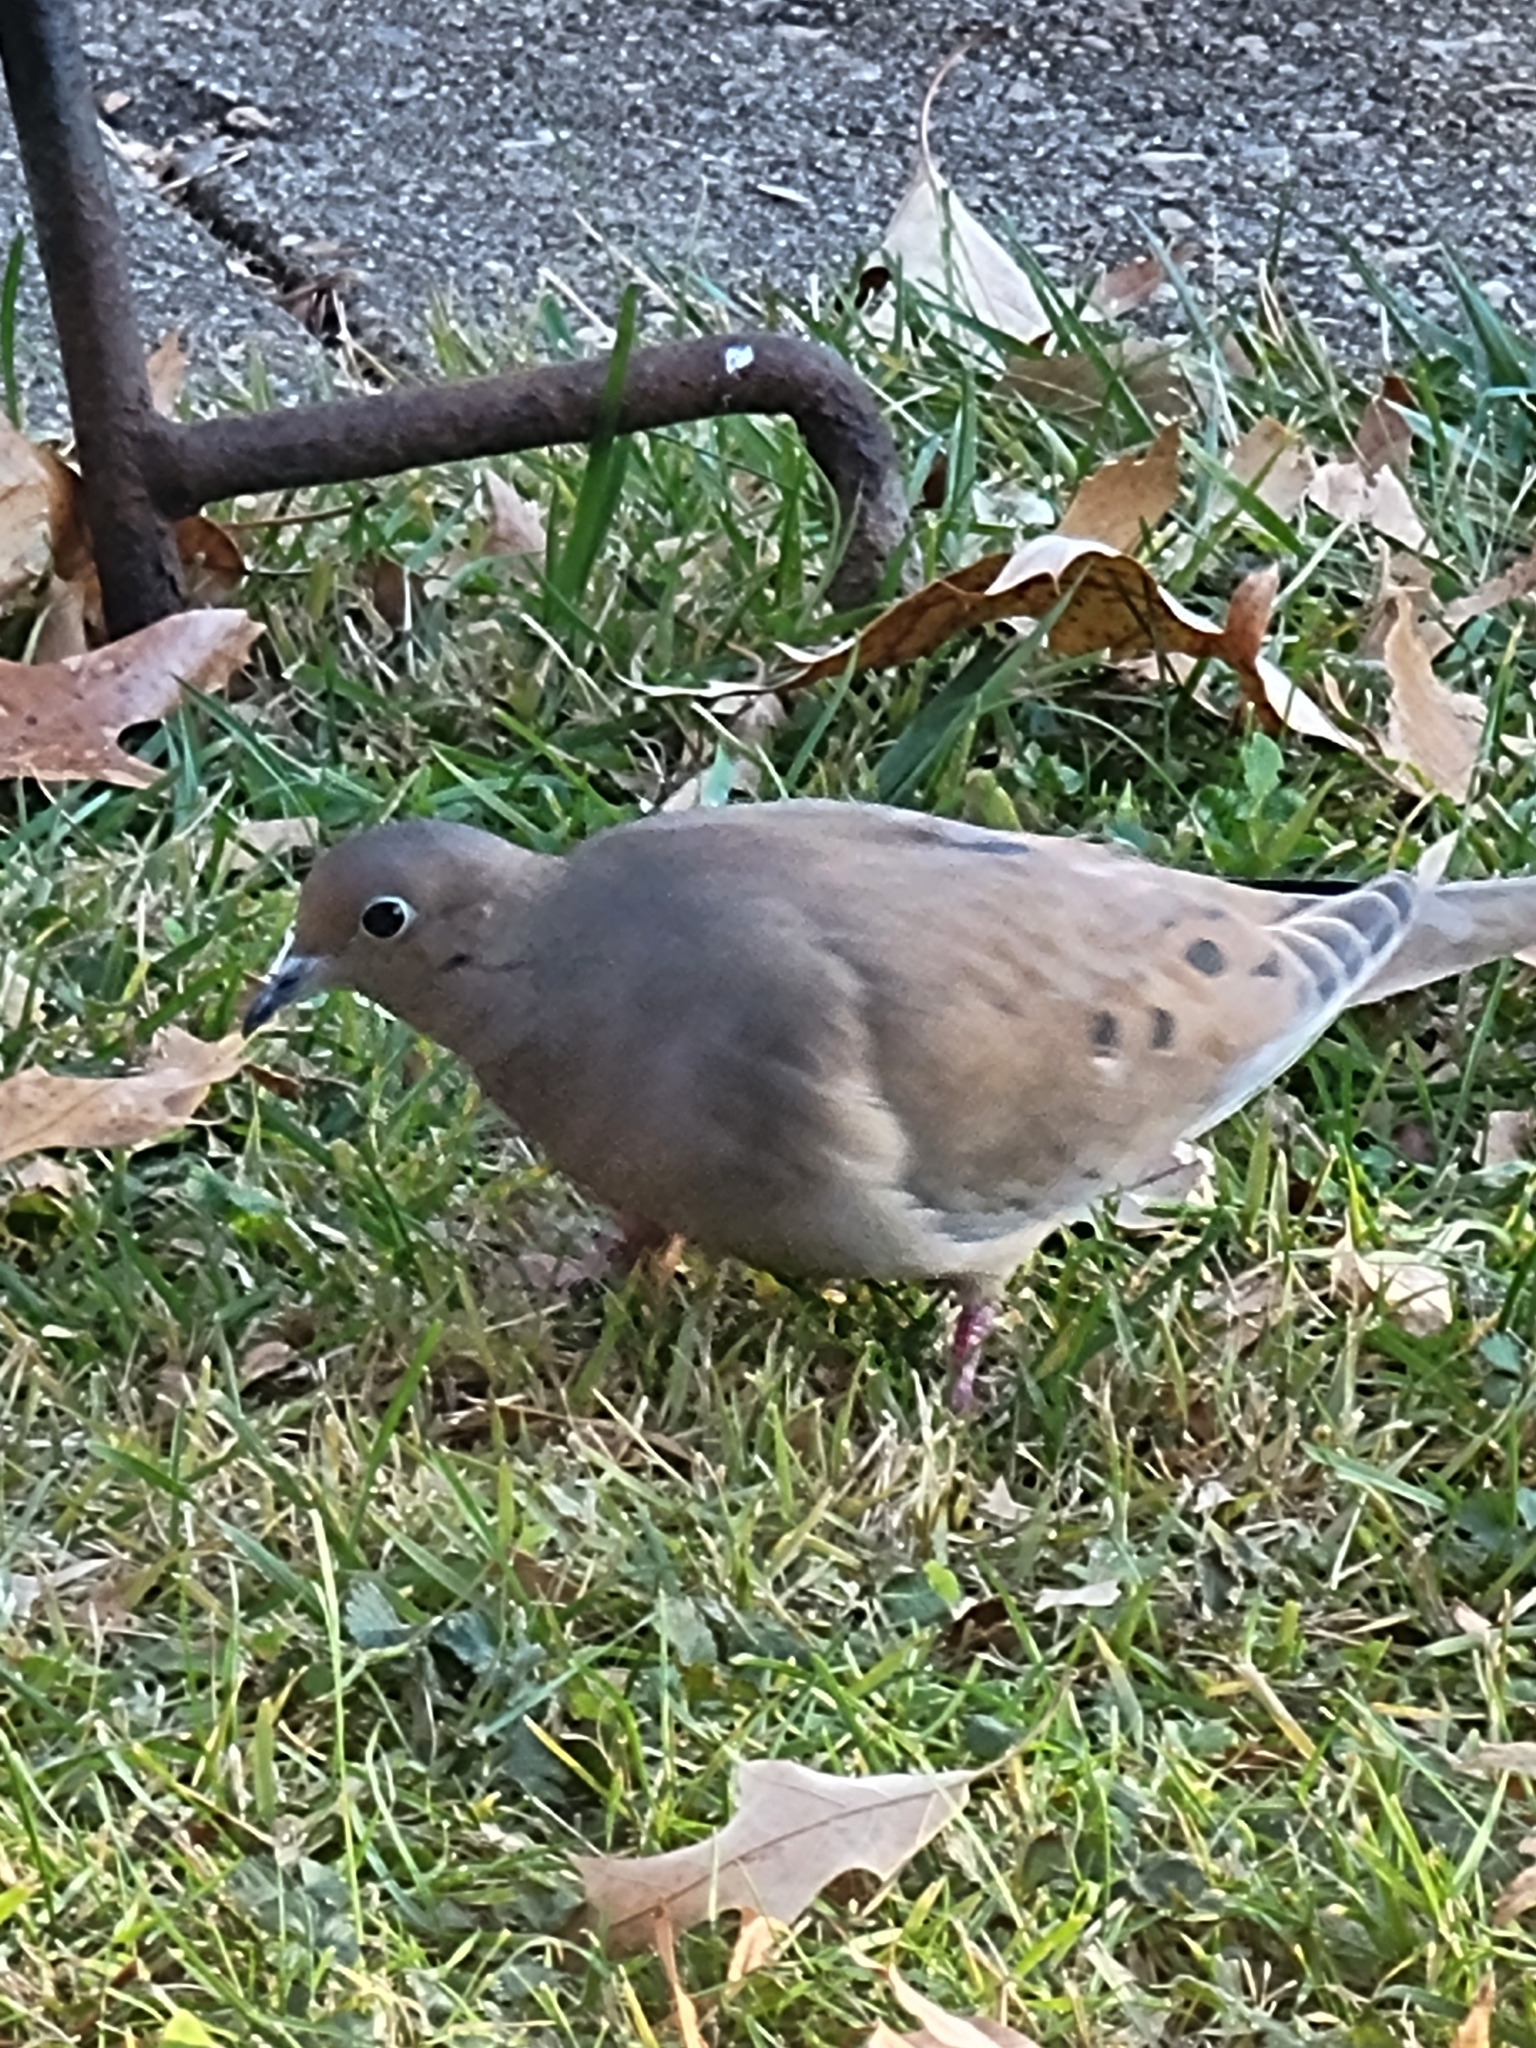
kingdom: Animalia
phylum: Chordata
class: Aves
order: Columbiformes
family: Columbidae
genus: Zenaida
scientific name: Zenaida macroura
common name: Mourning dove
